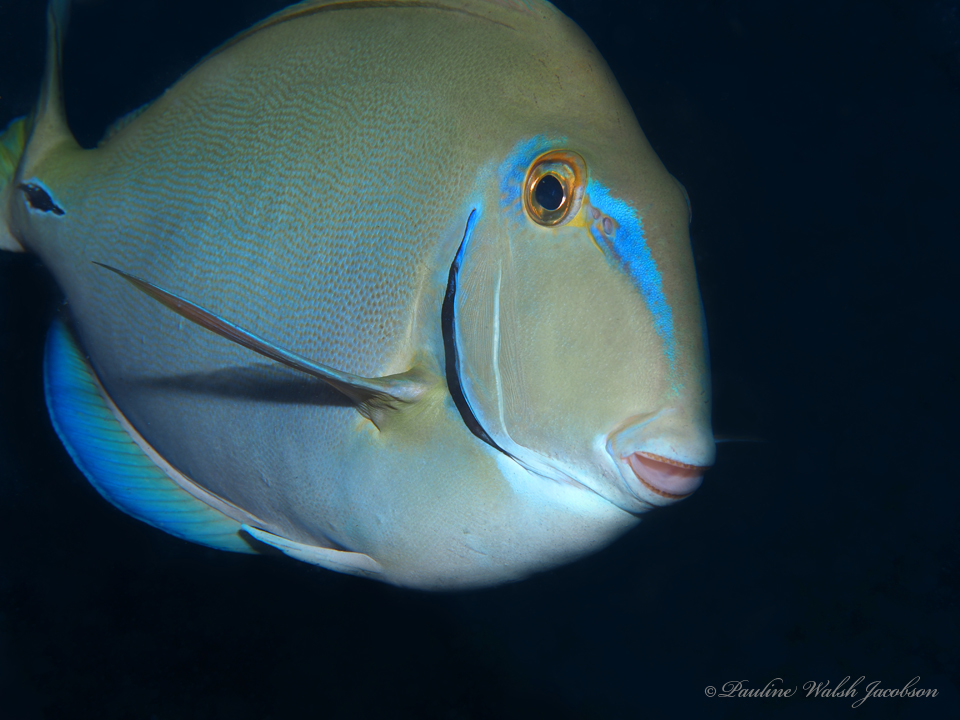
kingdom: Animalia
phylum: Chordata
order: Perciformes
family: Acanthuridae
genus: Acanthurus
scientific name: Acanthurus bahianus
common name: Ocean surgeon
